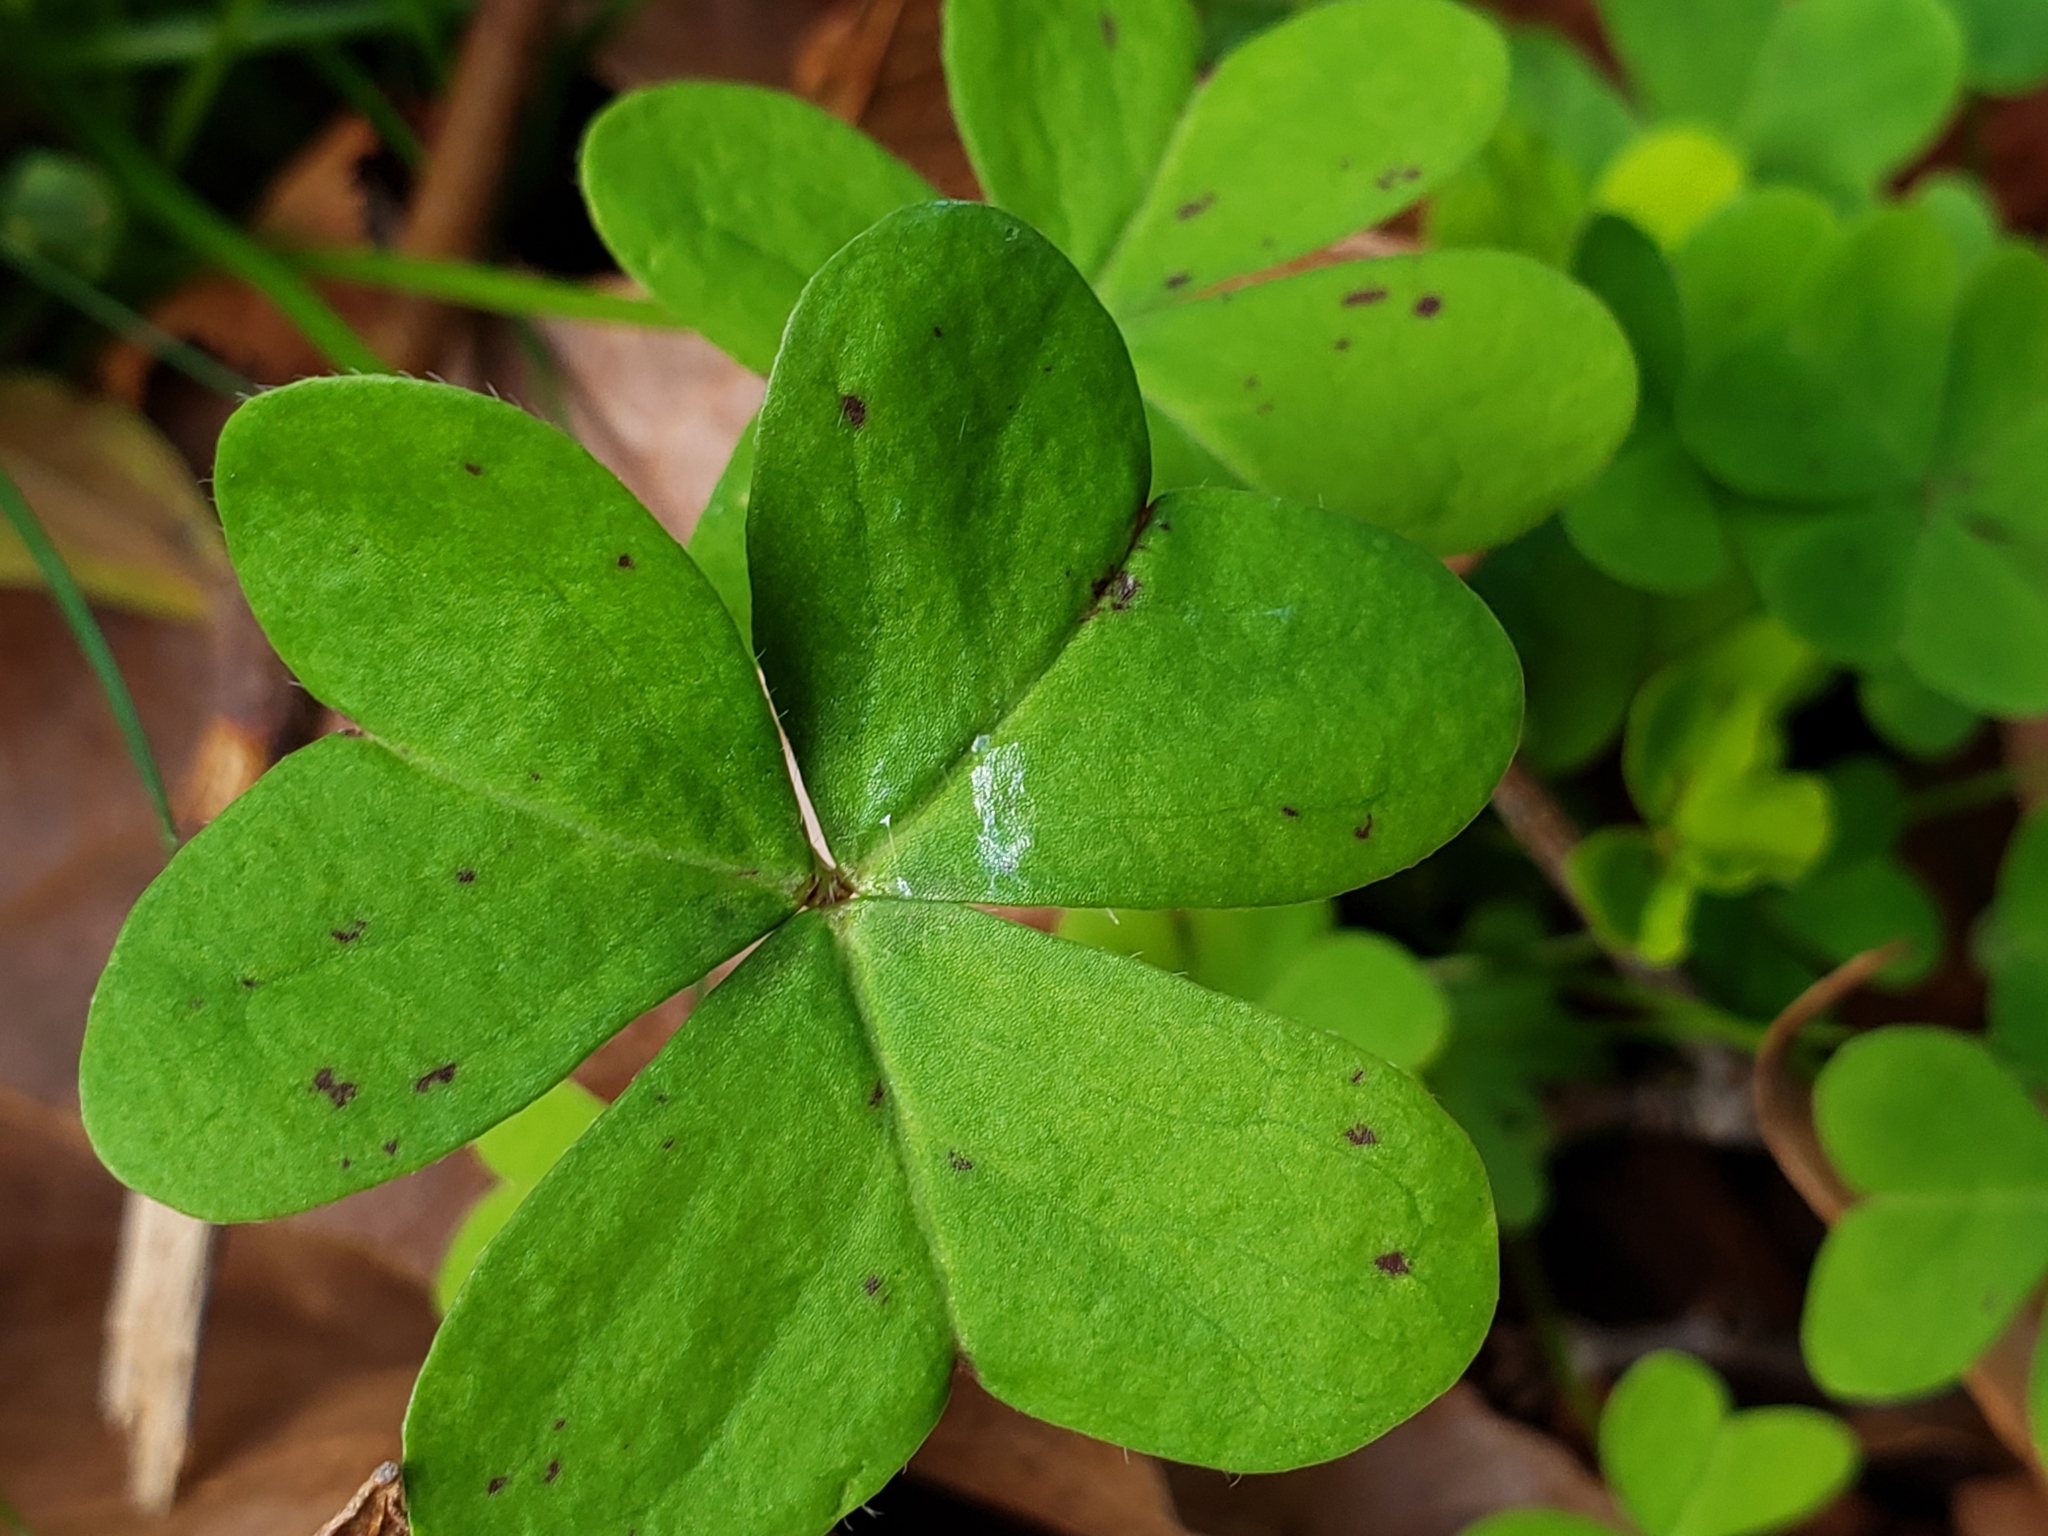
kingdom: Plantae
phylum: Tracheophyta
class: Magnoliopsida
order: Oxalidales
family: Oxalidaceae
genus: Oxalis
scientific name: Oxalis pes-caprae
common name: Bermuda-buttercup
